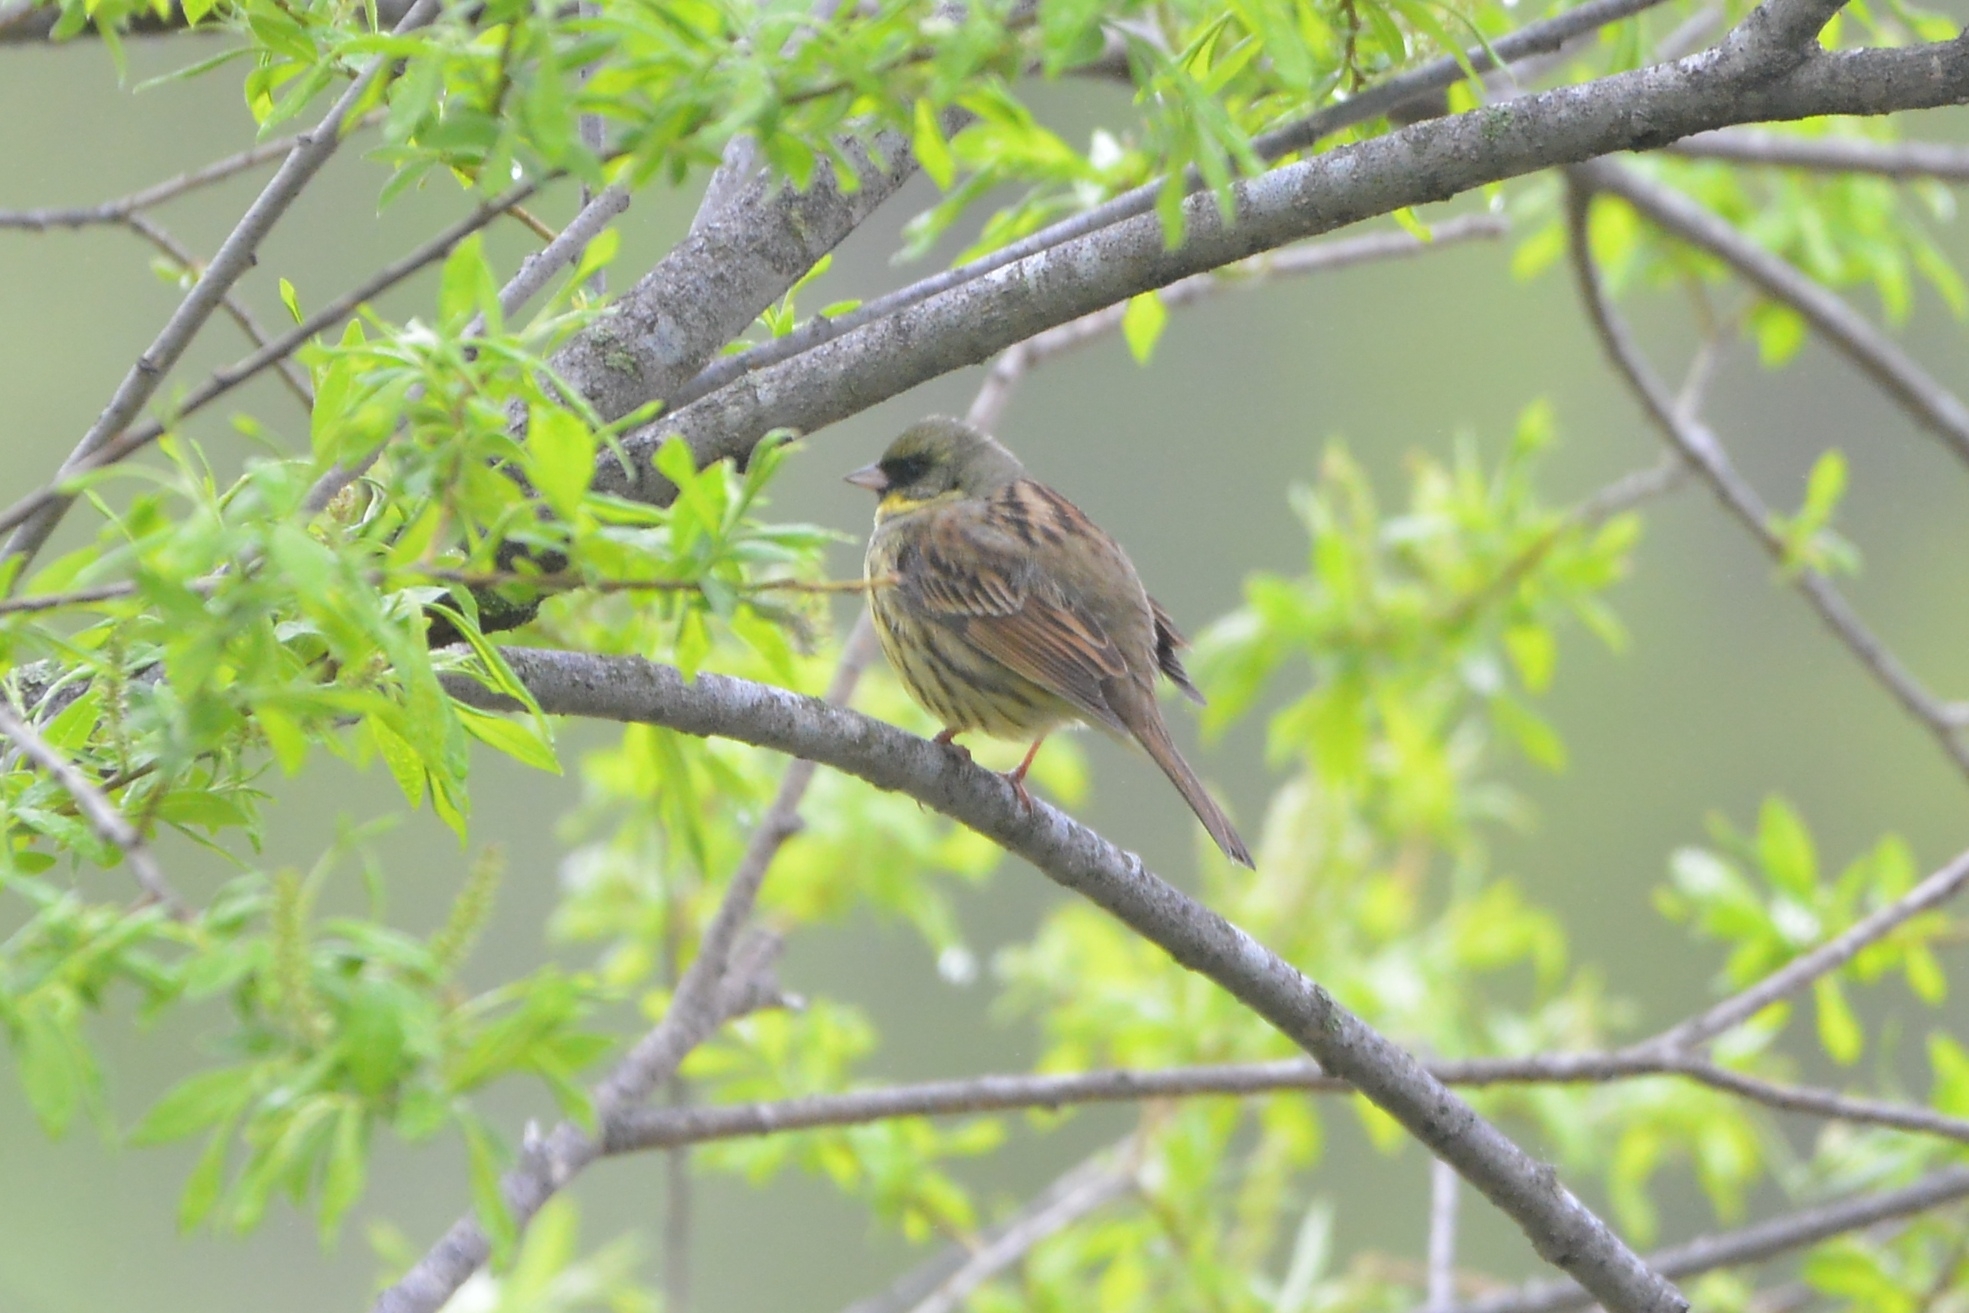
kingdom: Animalia
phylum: Chordata
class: Aves
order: Passeriformes
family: Emberizidae
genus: Emberiza
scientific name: Emberiza personata
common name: Masked bunting
